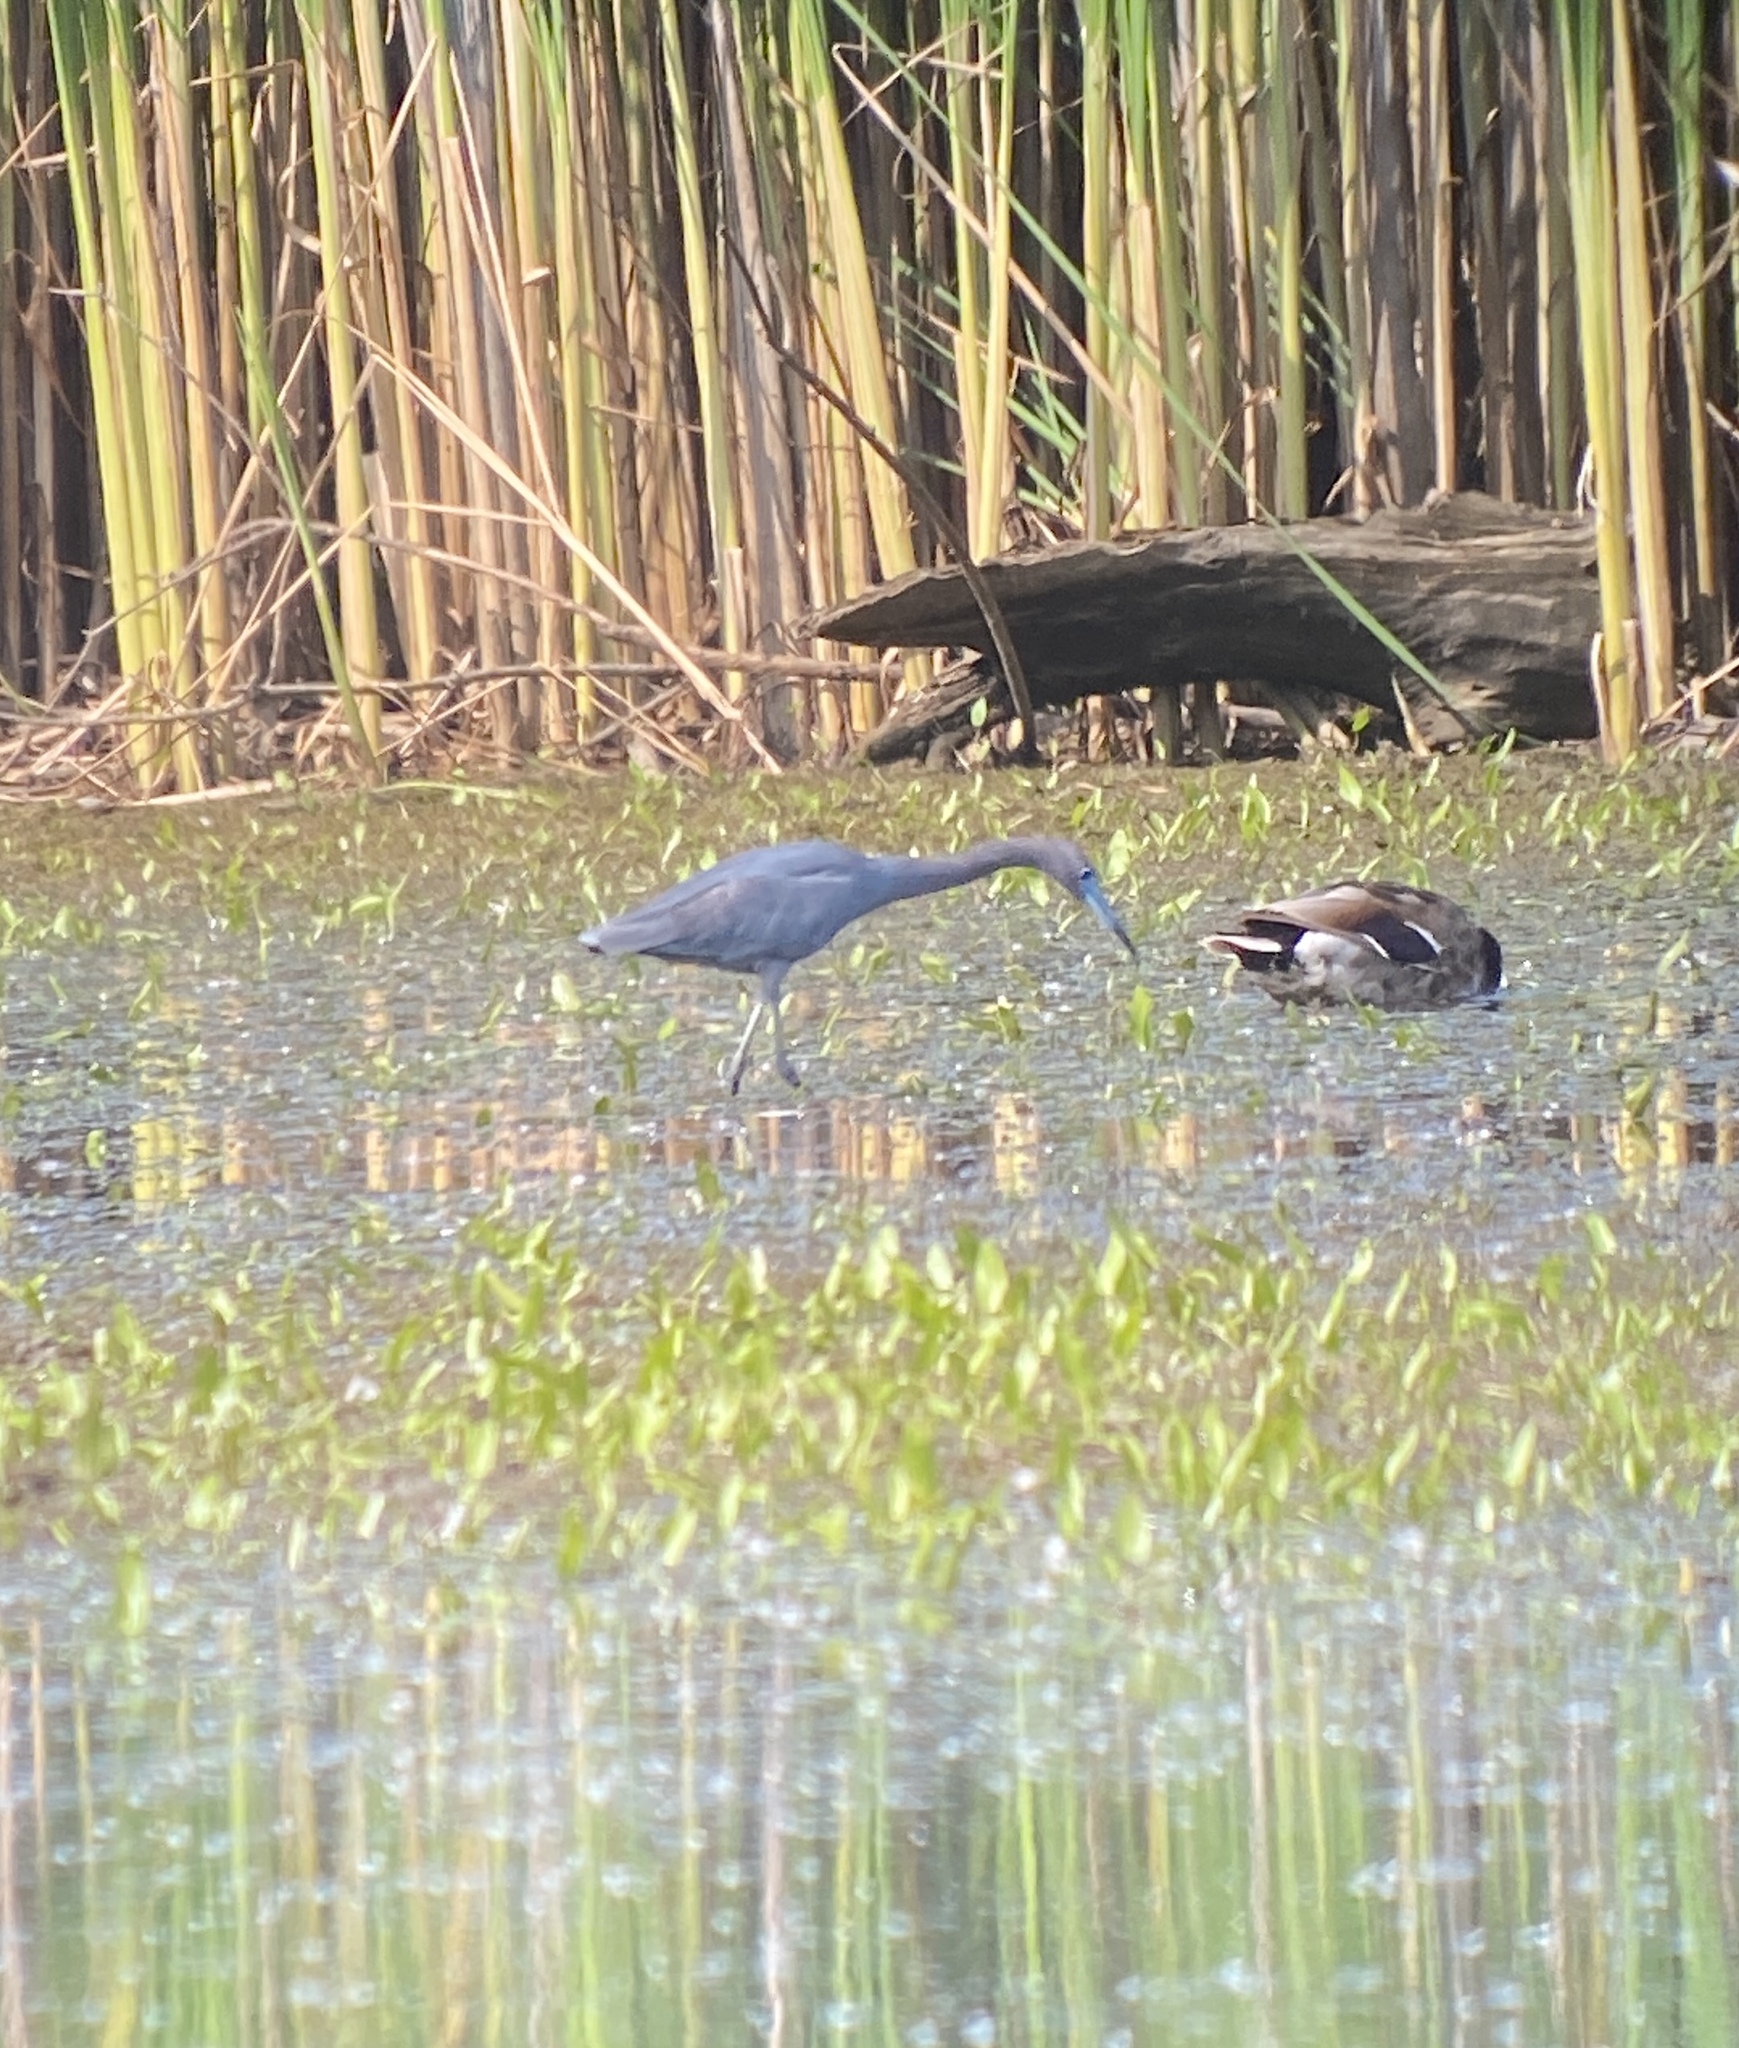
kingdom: Animalia
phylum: Chordata
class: Aves
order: Pelecaniformes
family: Ardeidae
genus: Egretta
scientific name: Egretta caerulea
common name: Little blue heron
